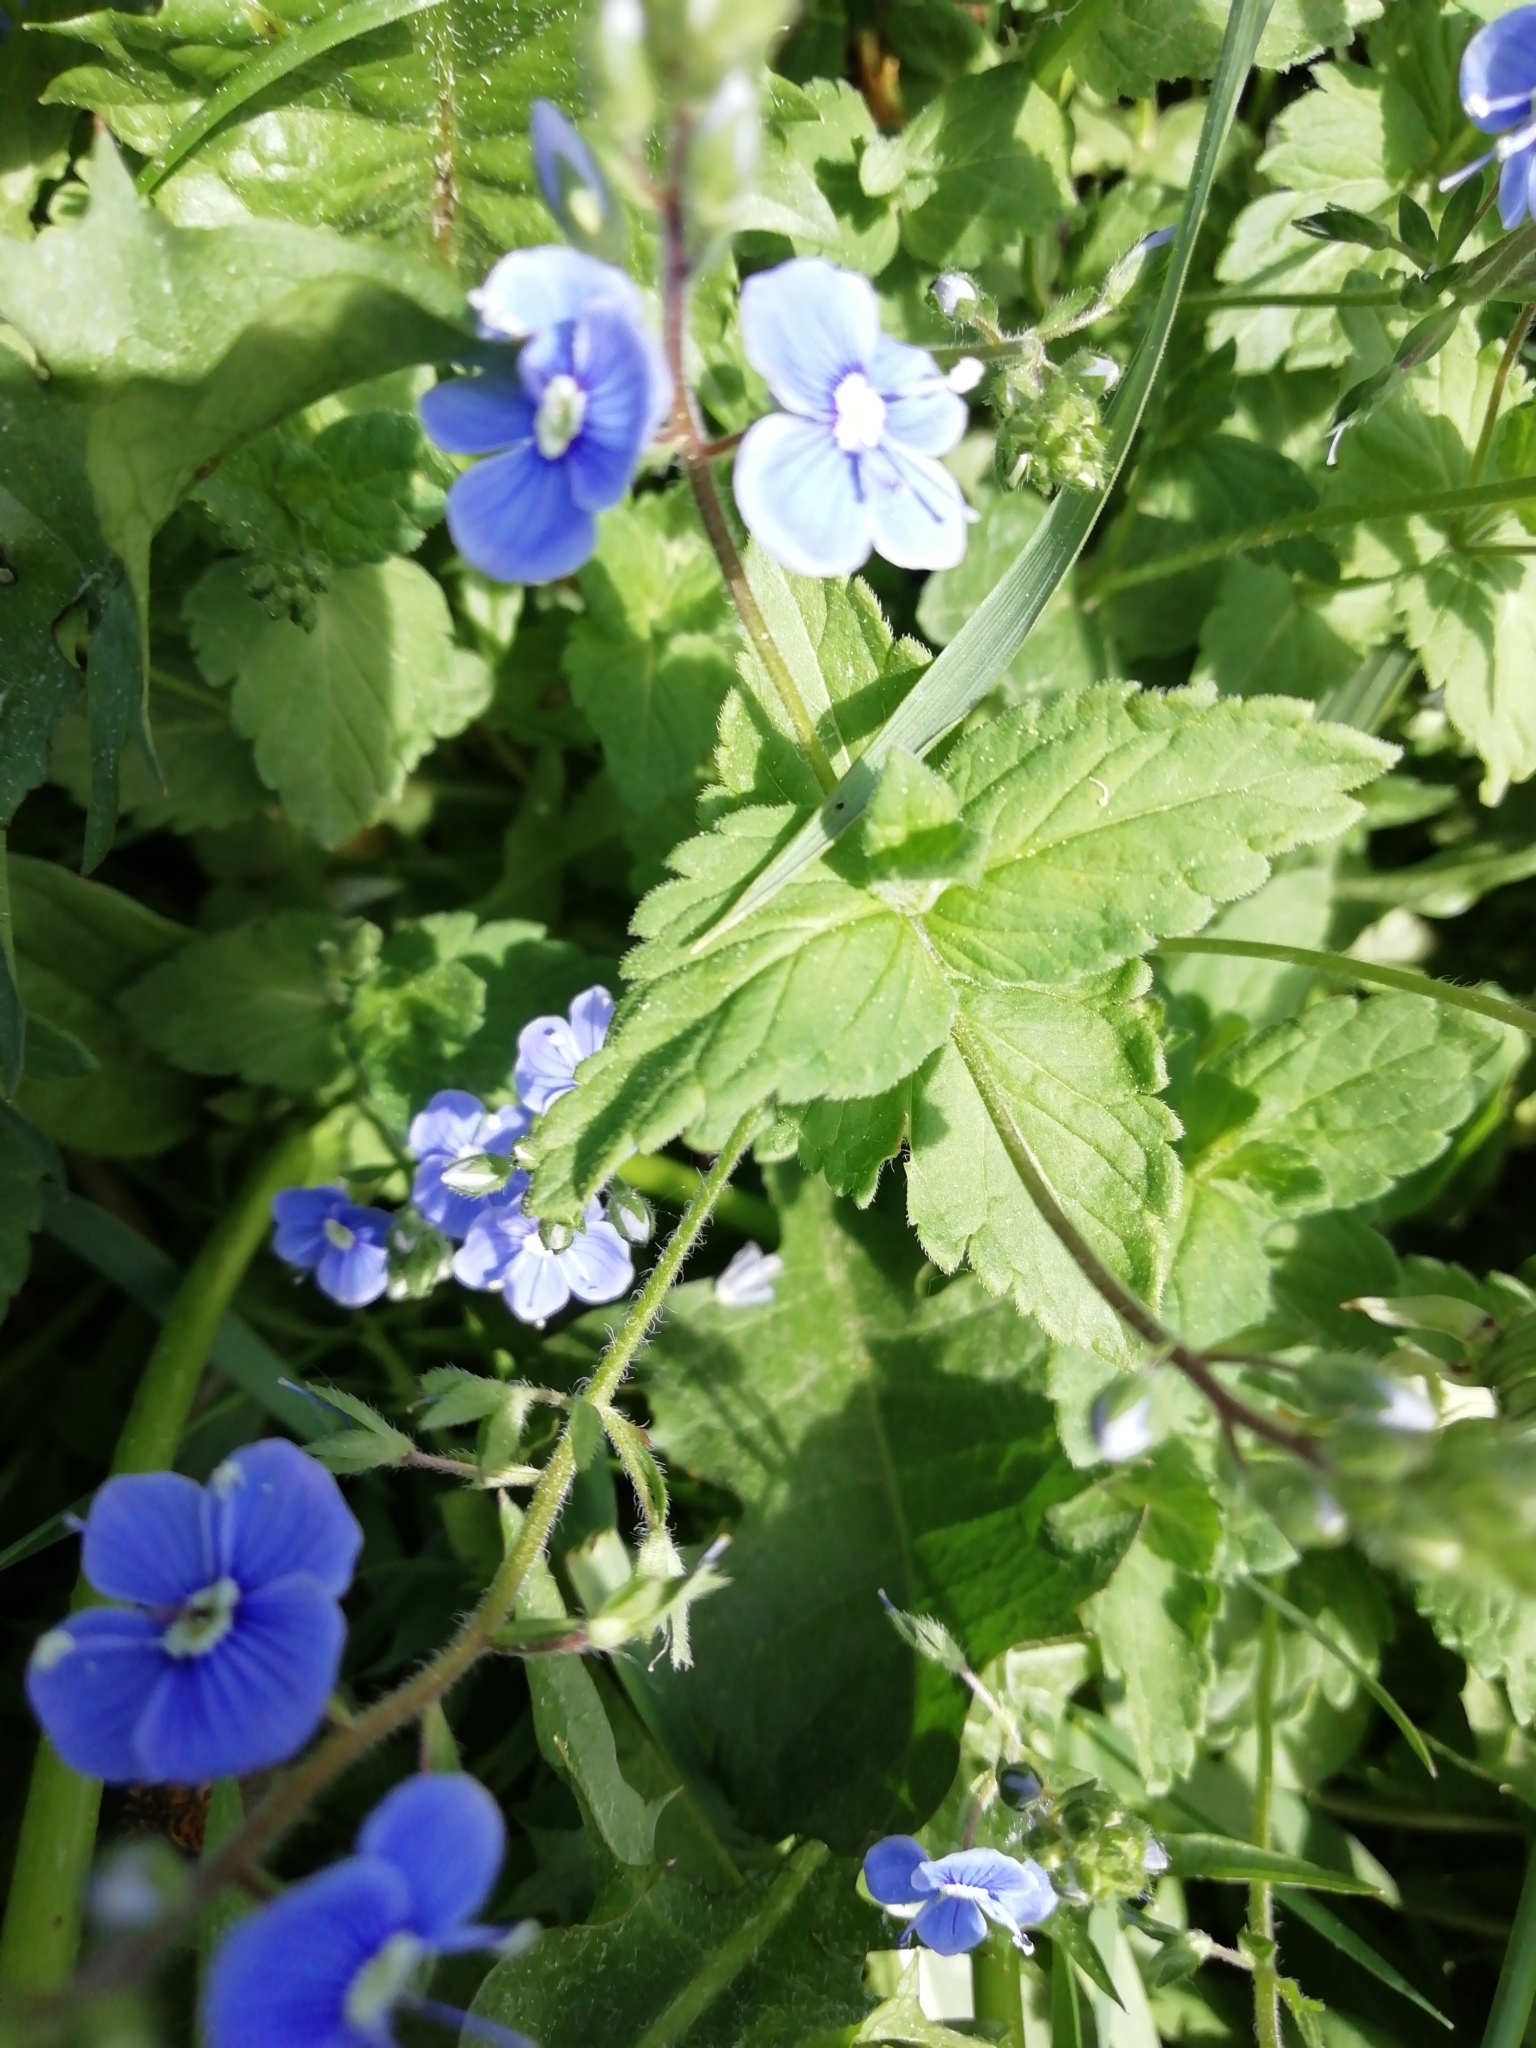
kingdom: Plantae
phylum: Tracheophyta
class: Magnoliopsida
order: Lamiales
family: Plantaginaceae
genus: Veronica
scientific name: Veronica chamaedrys
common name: Germander speedwell
